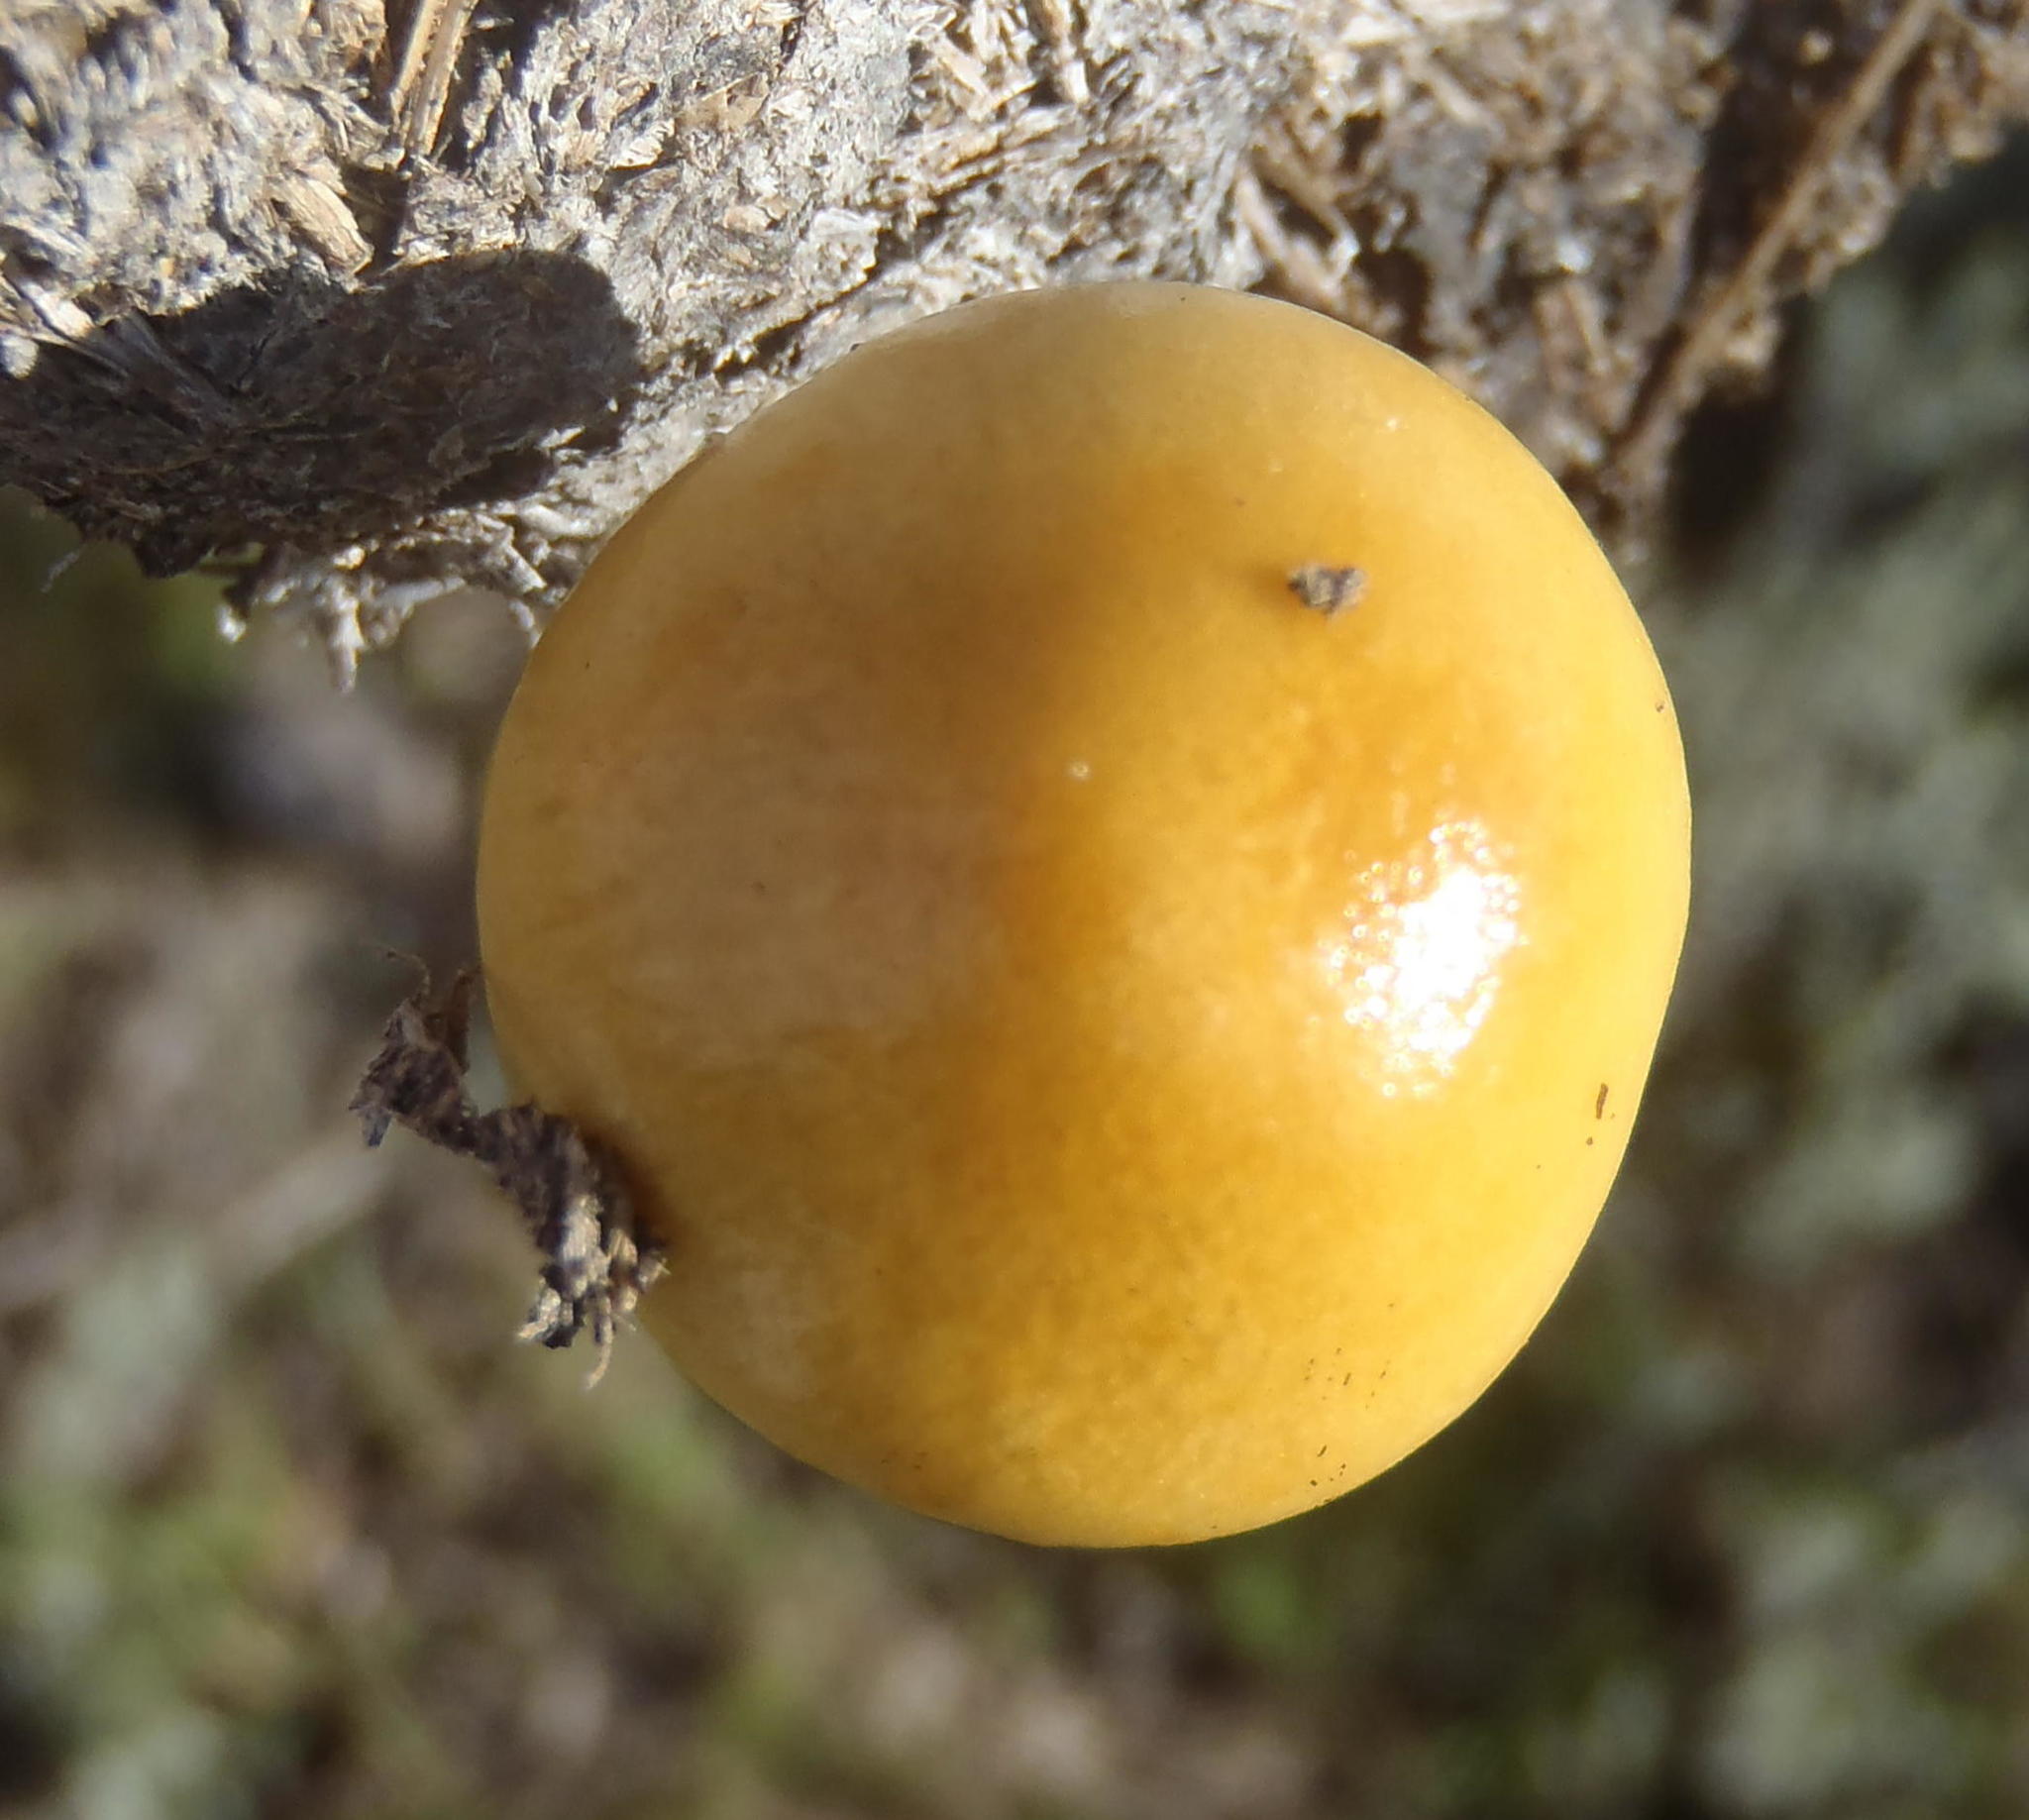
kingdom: Fungi
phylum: Basidiomycota
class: Agaricomycetes
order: Agaricales
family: Strophariaceae
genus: Protostropharia
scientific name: Protostropharia semiglobata
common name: Dung roundhead
